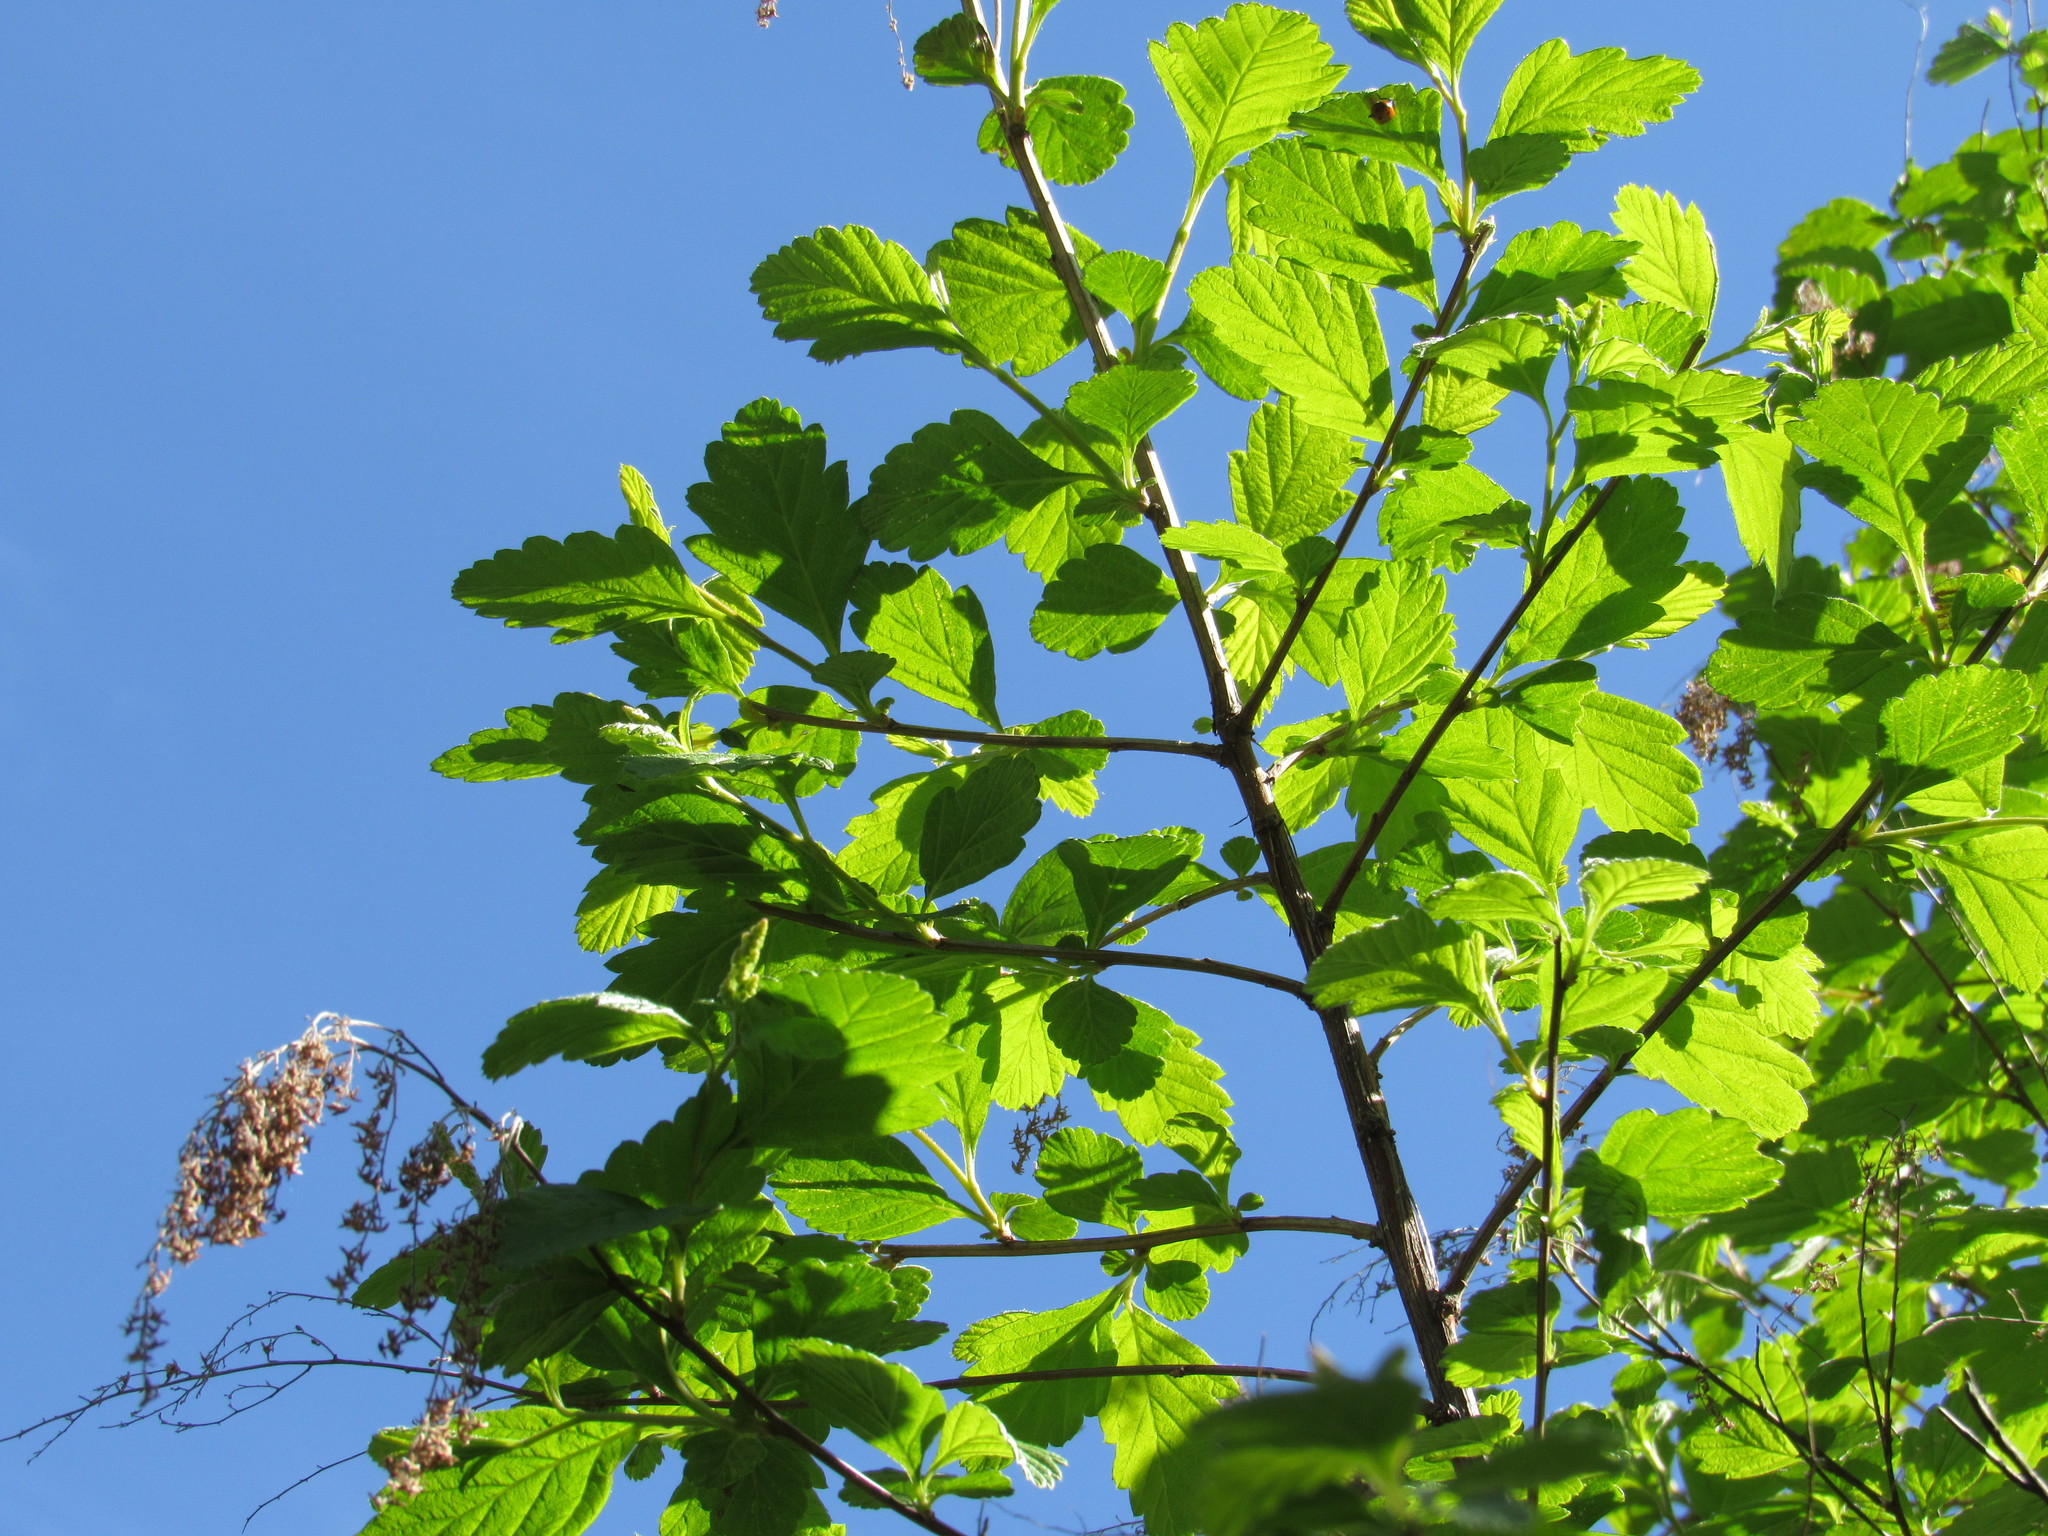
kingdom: Plantae
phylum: Tracheophyta
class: Magnoliopsida
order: Rosales
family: Rosaceae
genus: Holodiscus
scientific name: Holodiscus discolor
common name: Oceanspray
